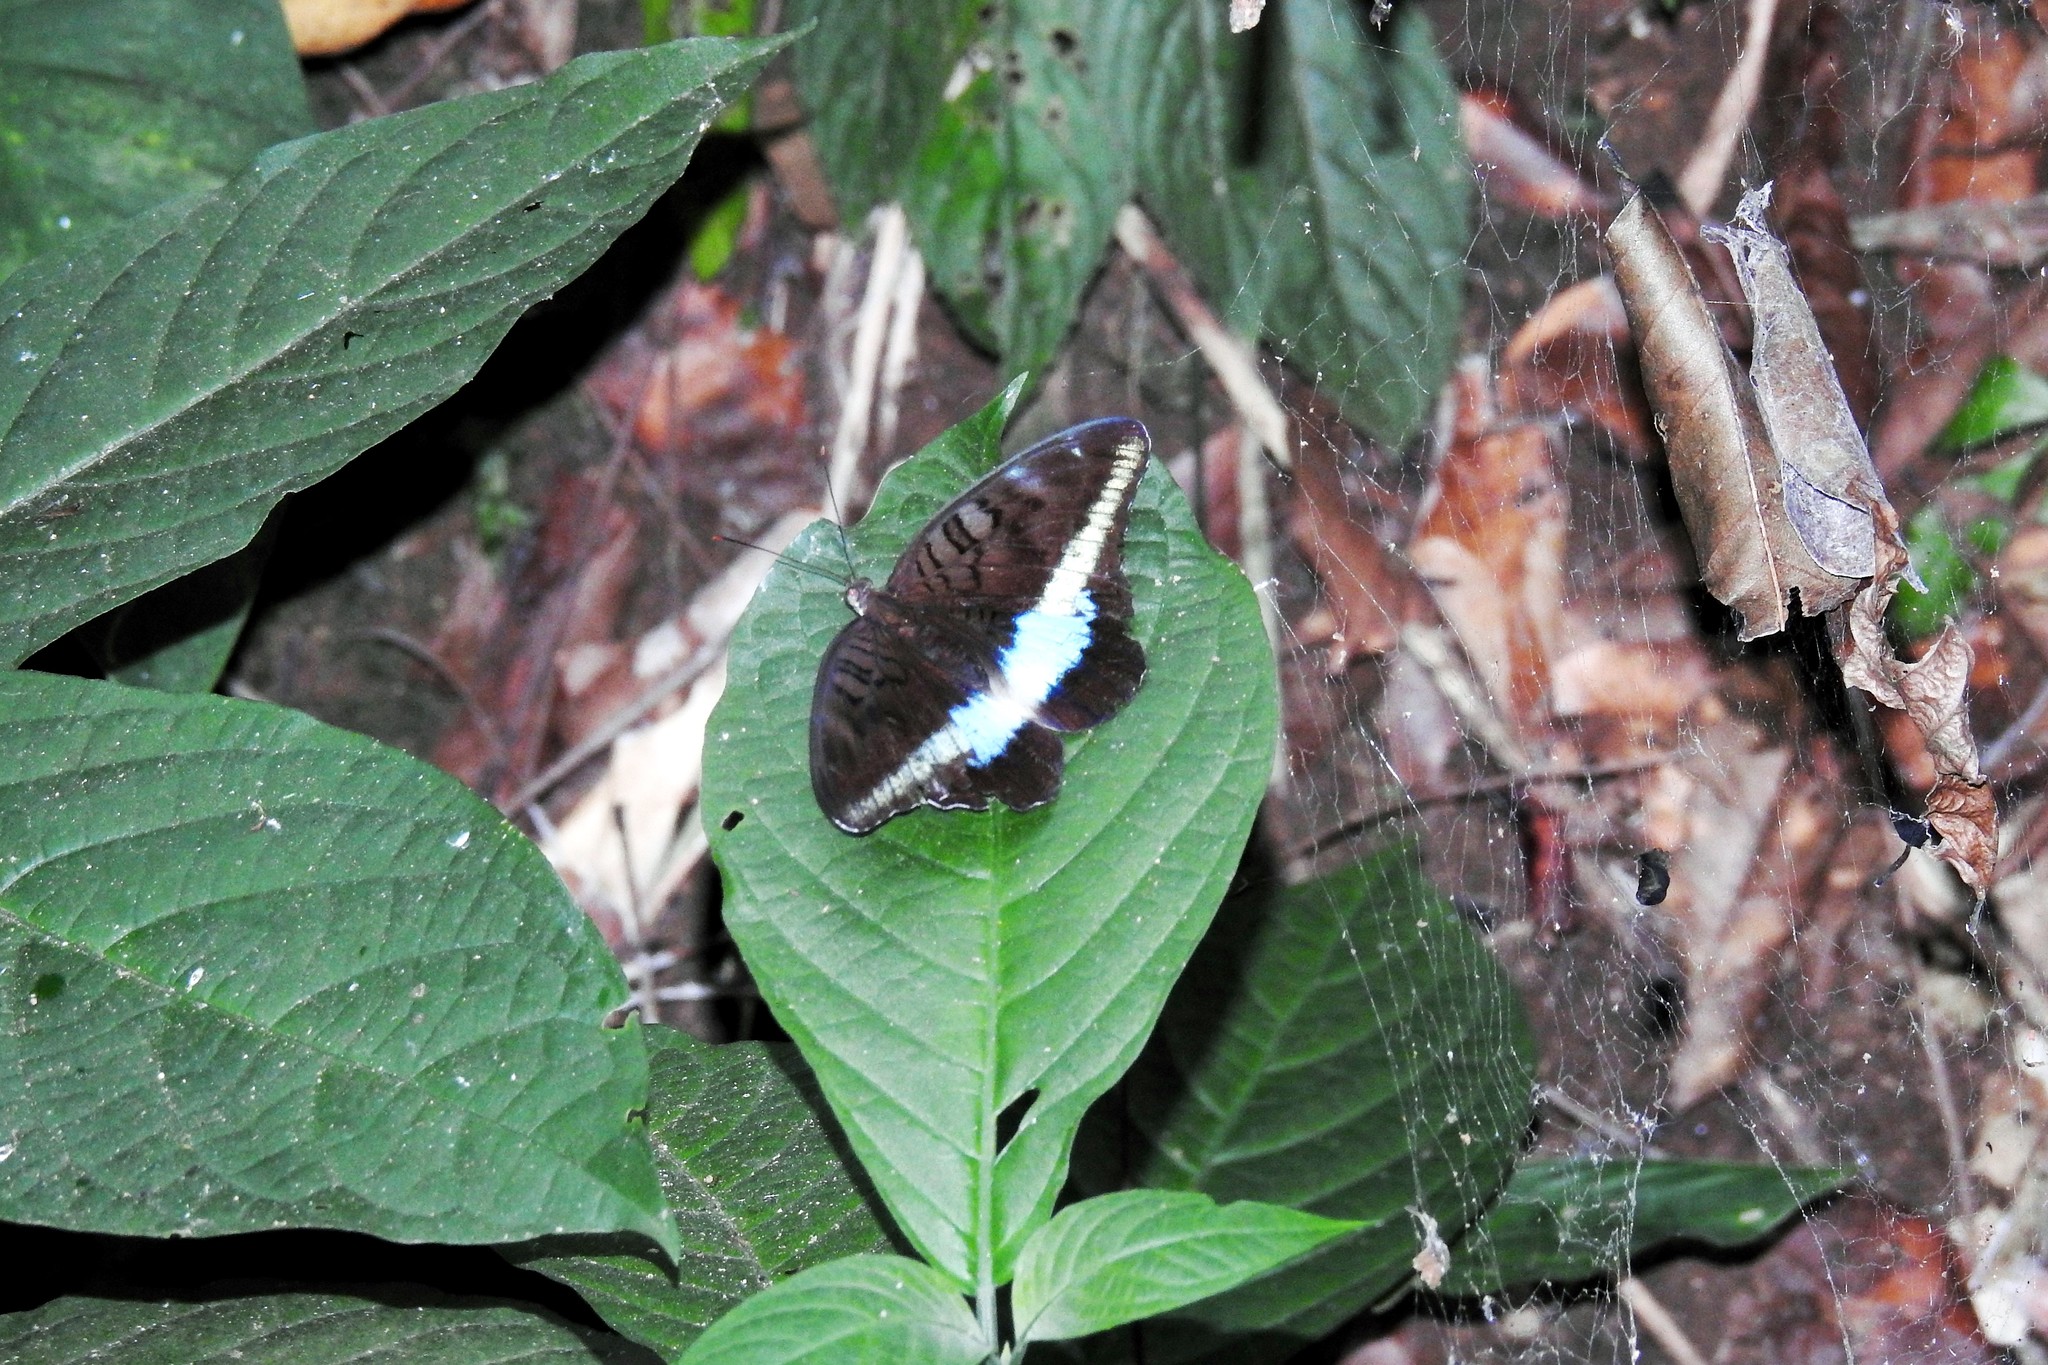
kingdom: Animalia
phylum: Arthropoda
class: Insecta
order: Lepidoptera
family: Nymphalidae
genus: Tanaecia
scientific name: Tanaecia calliphorus
